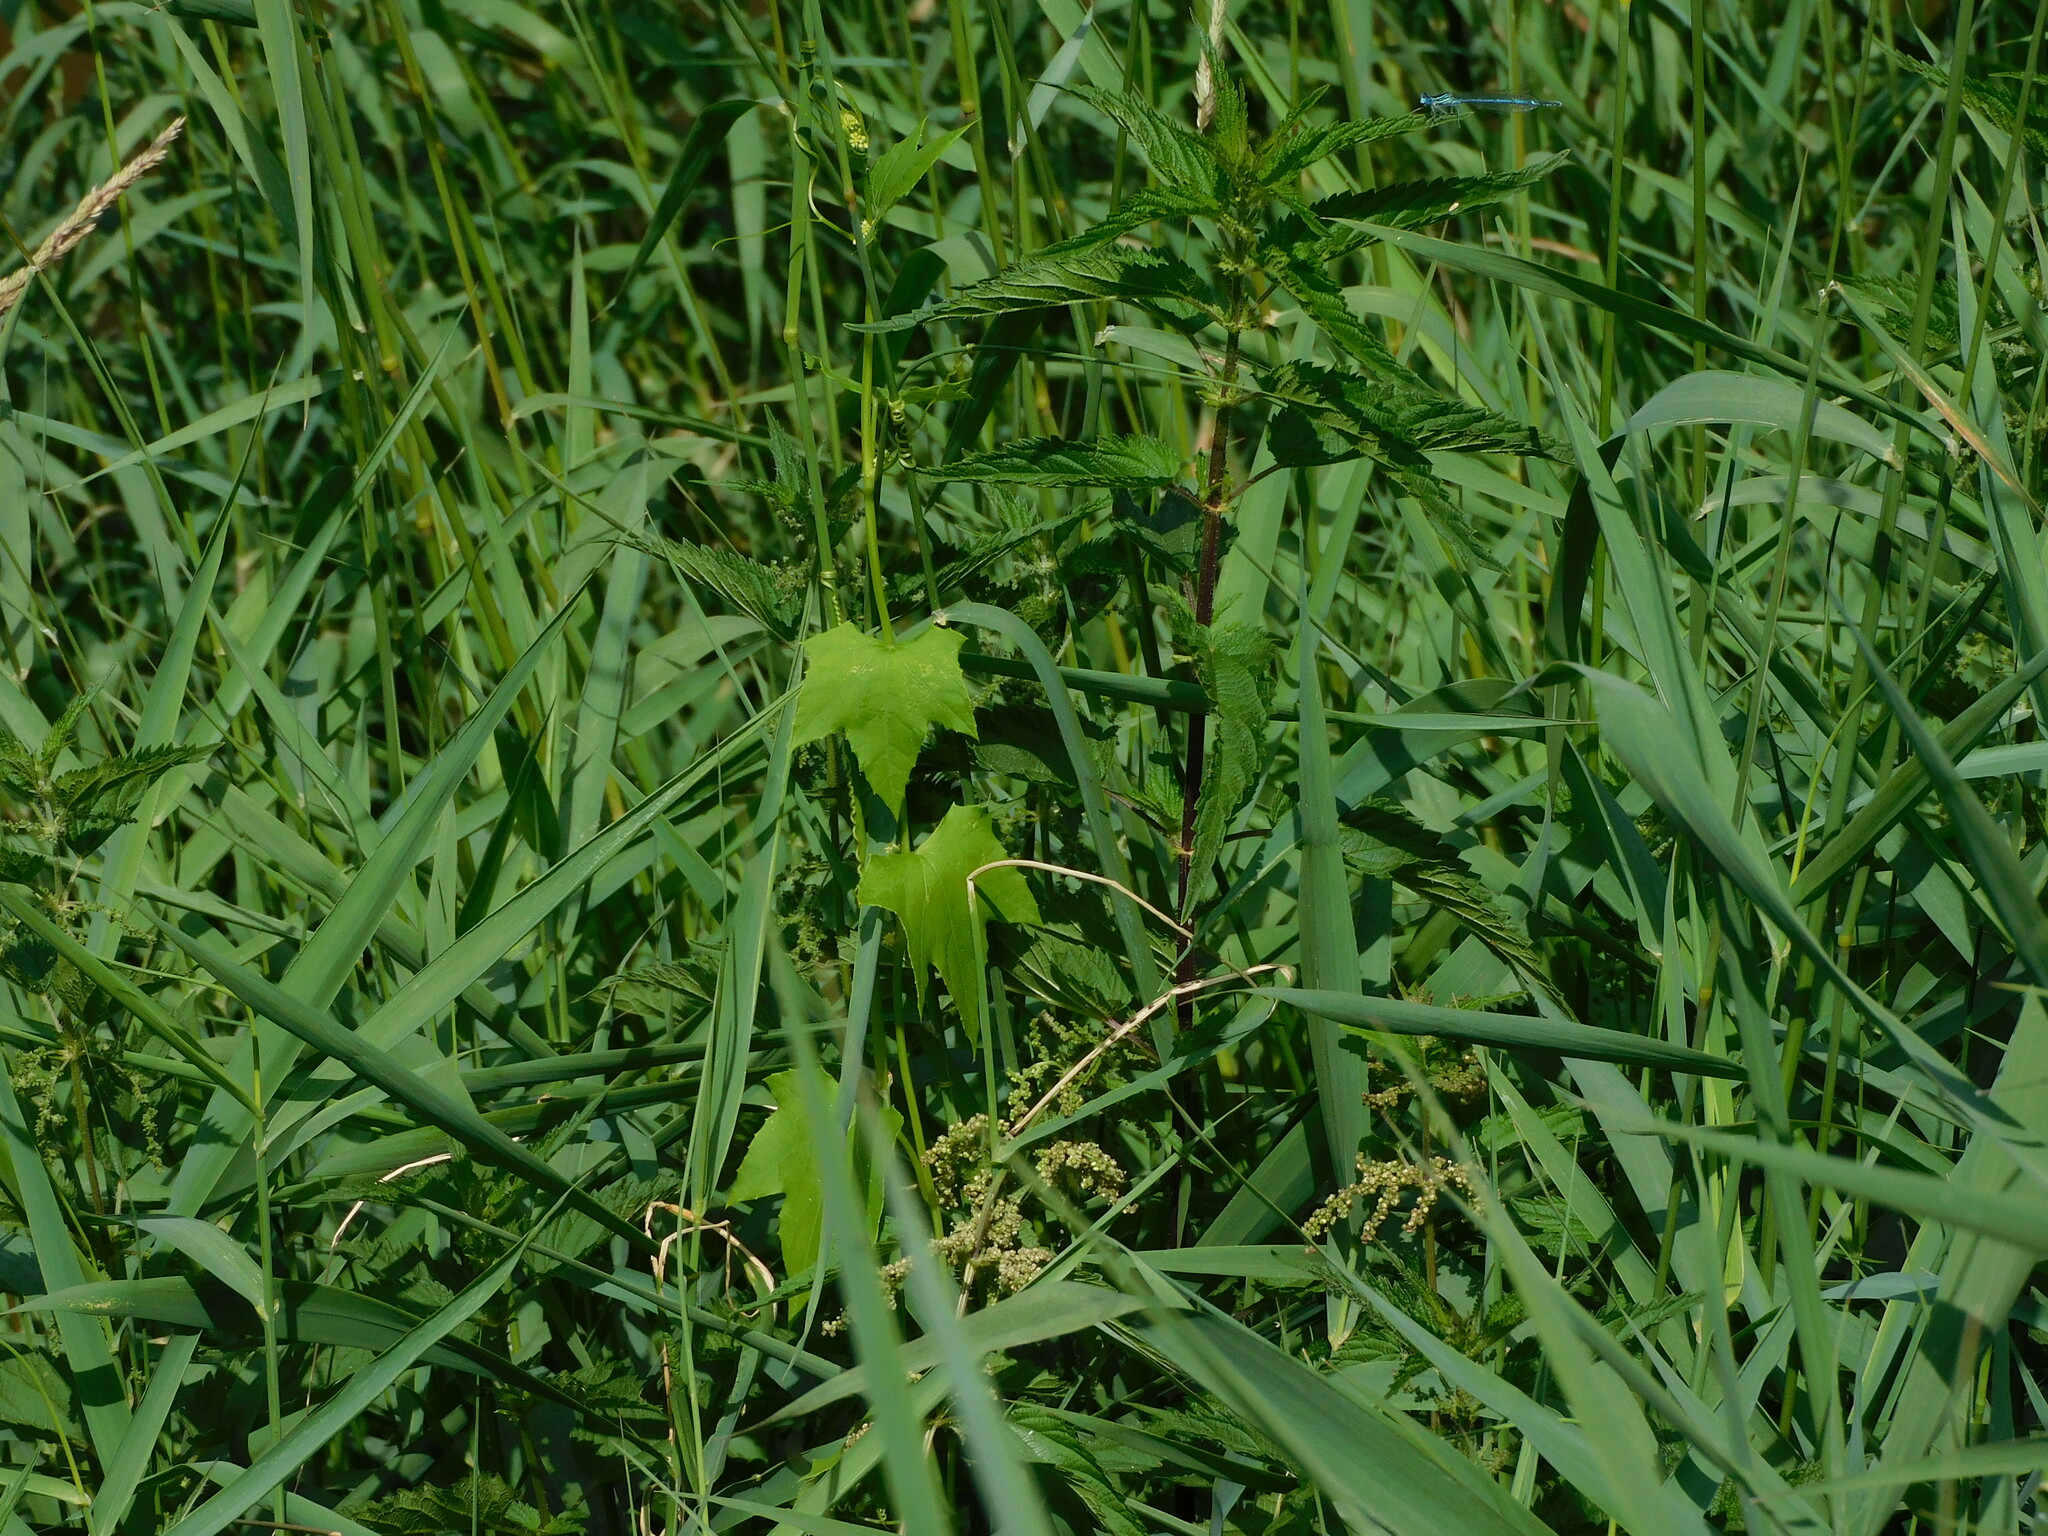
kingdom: Plantae
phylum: Tracheophyta
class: Magnoliopsida
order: Cucurbitales
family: Cucurbitaceae
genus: Echinocystis
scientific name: Echinocystis lobata
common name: Wild cucumber
